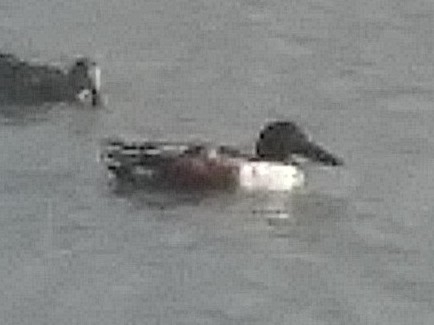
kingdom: Animalia
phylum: Chordata
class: Aves
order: Anseriformes
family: Anatidae
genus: Spatula
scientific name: Spatula clypeata
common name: Northern shoveler
